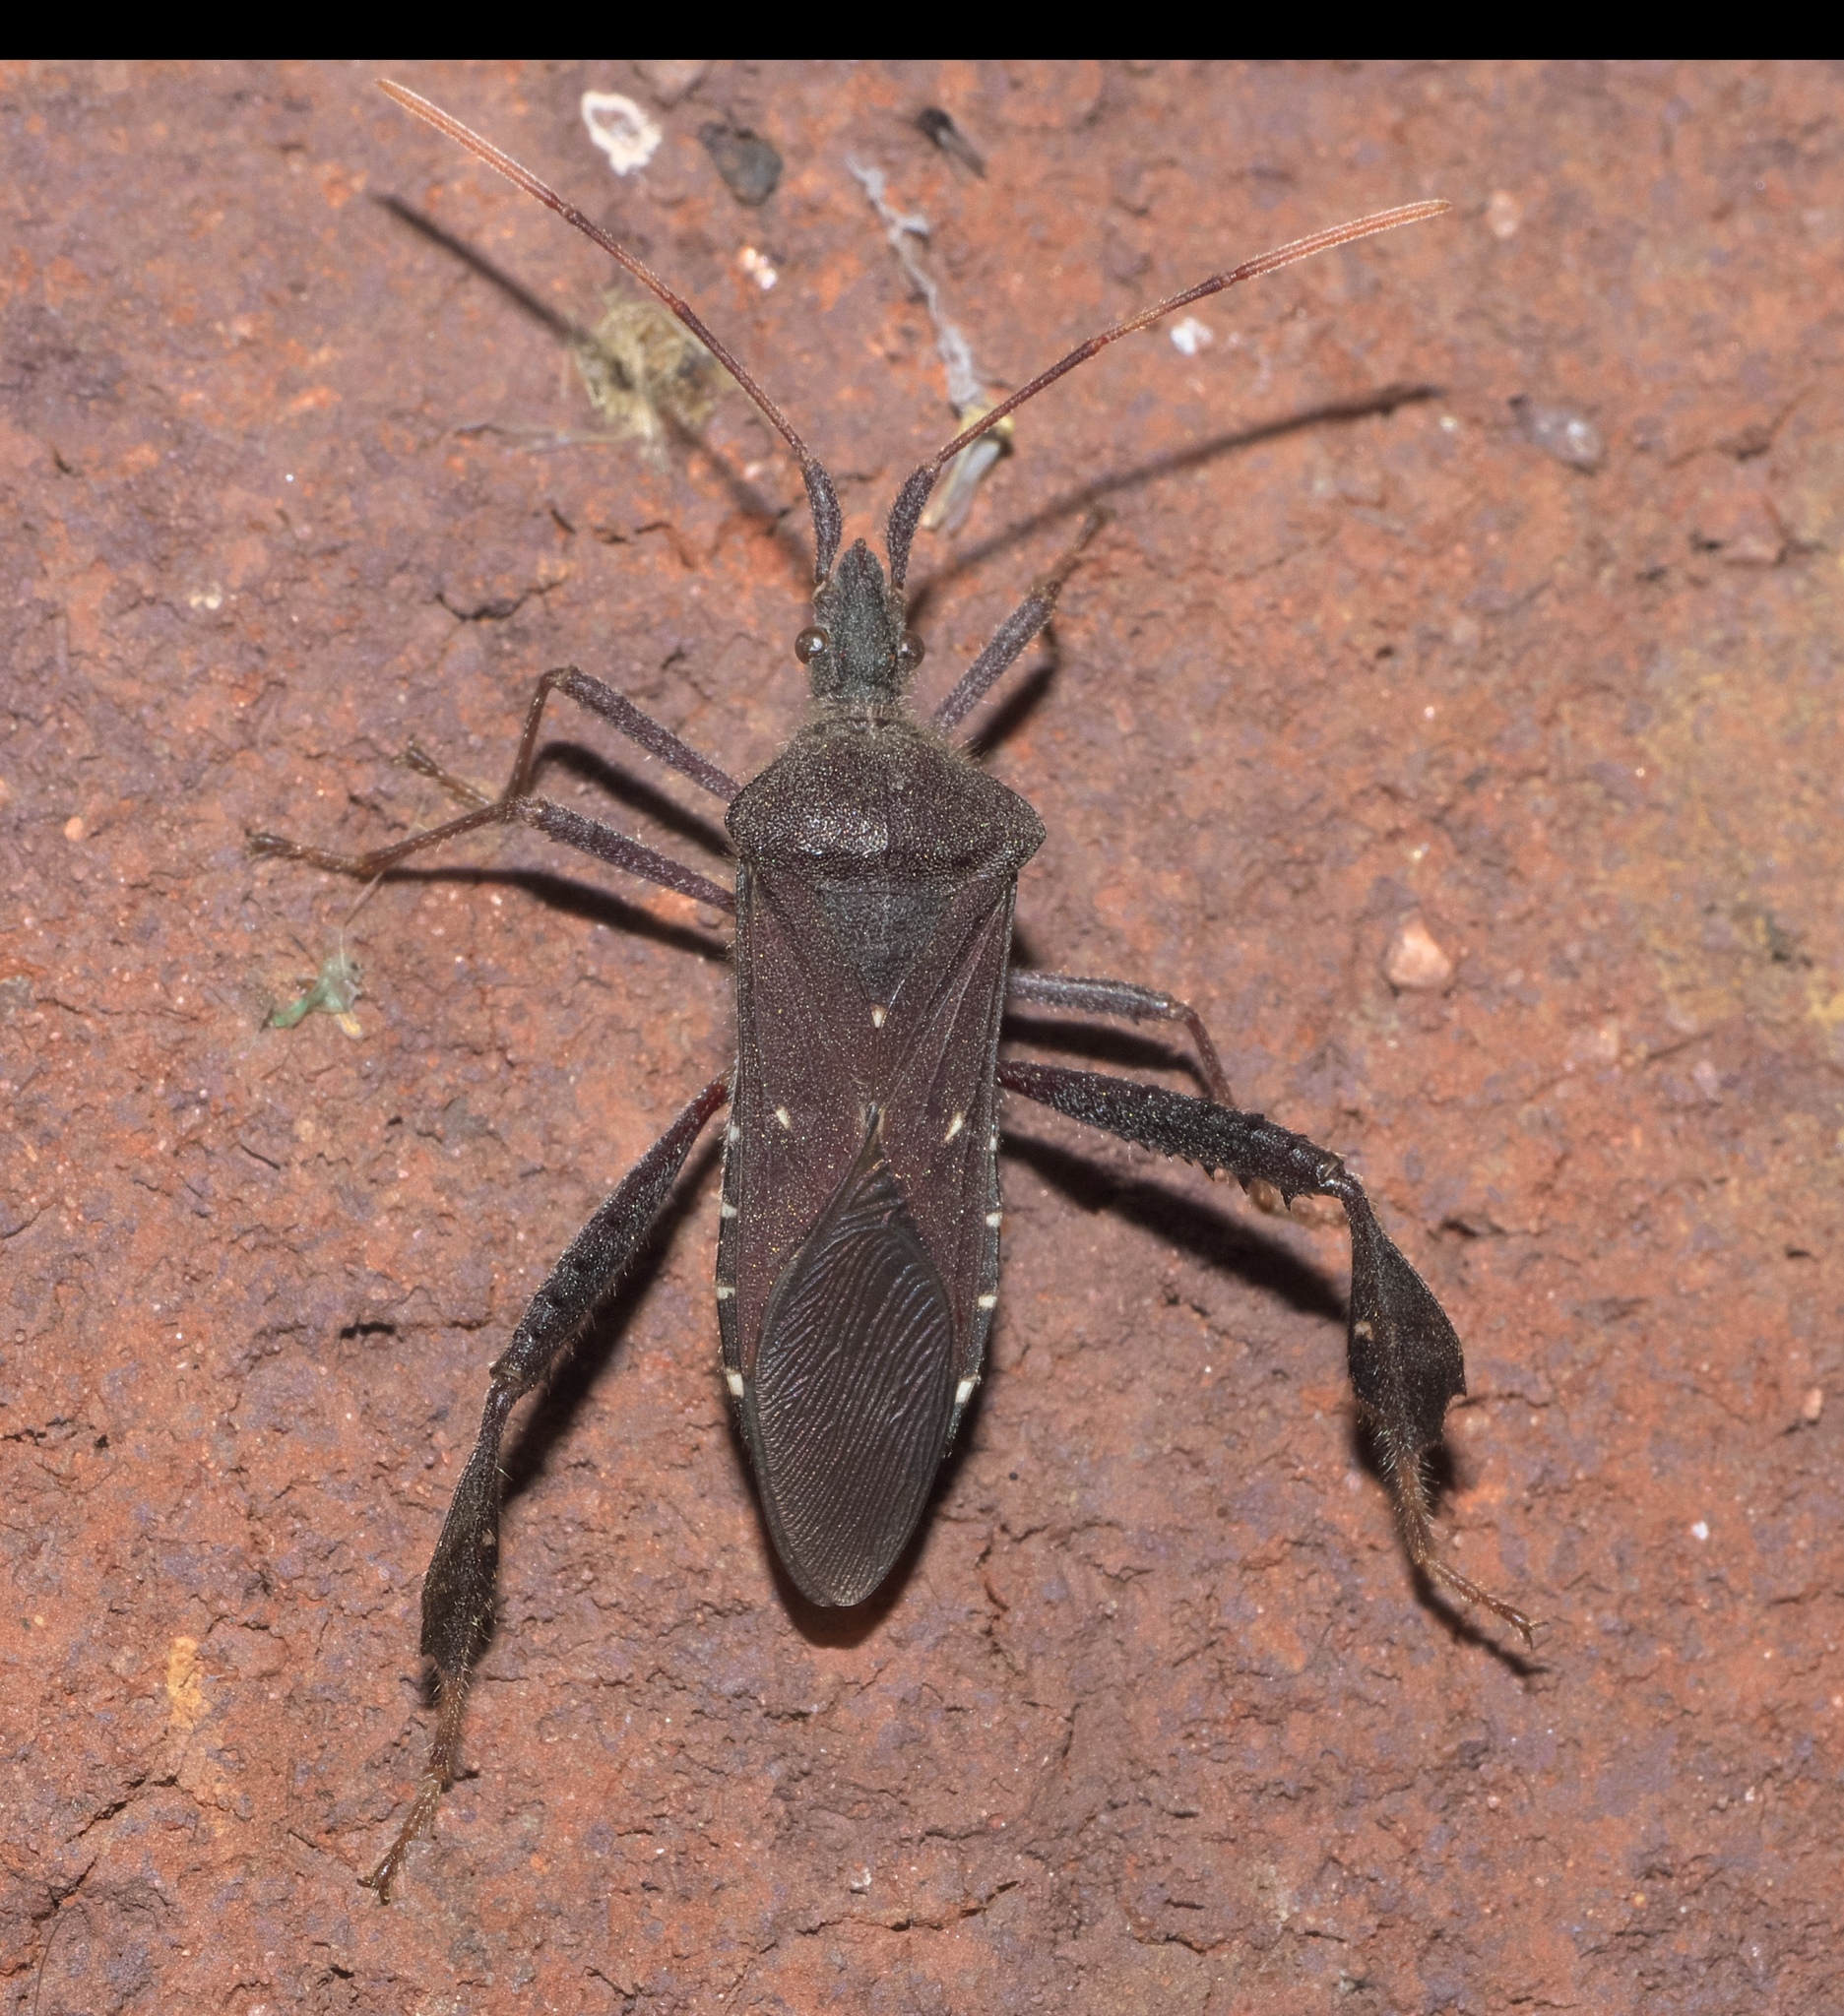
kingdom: Animalia
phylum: Arthropoda
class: Insecta
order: Hemiptera
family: Coreidae
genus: Leptoglossus
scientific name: Leptoglossus oppositus
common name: Northern leaf-footed bug
